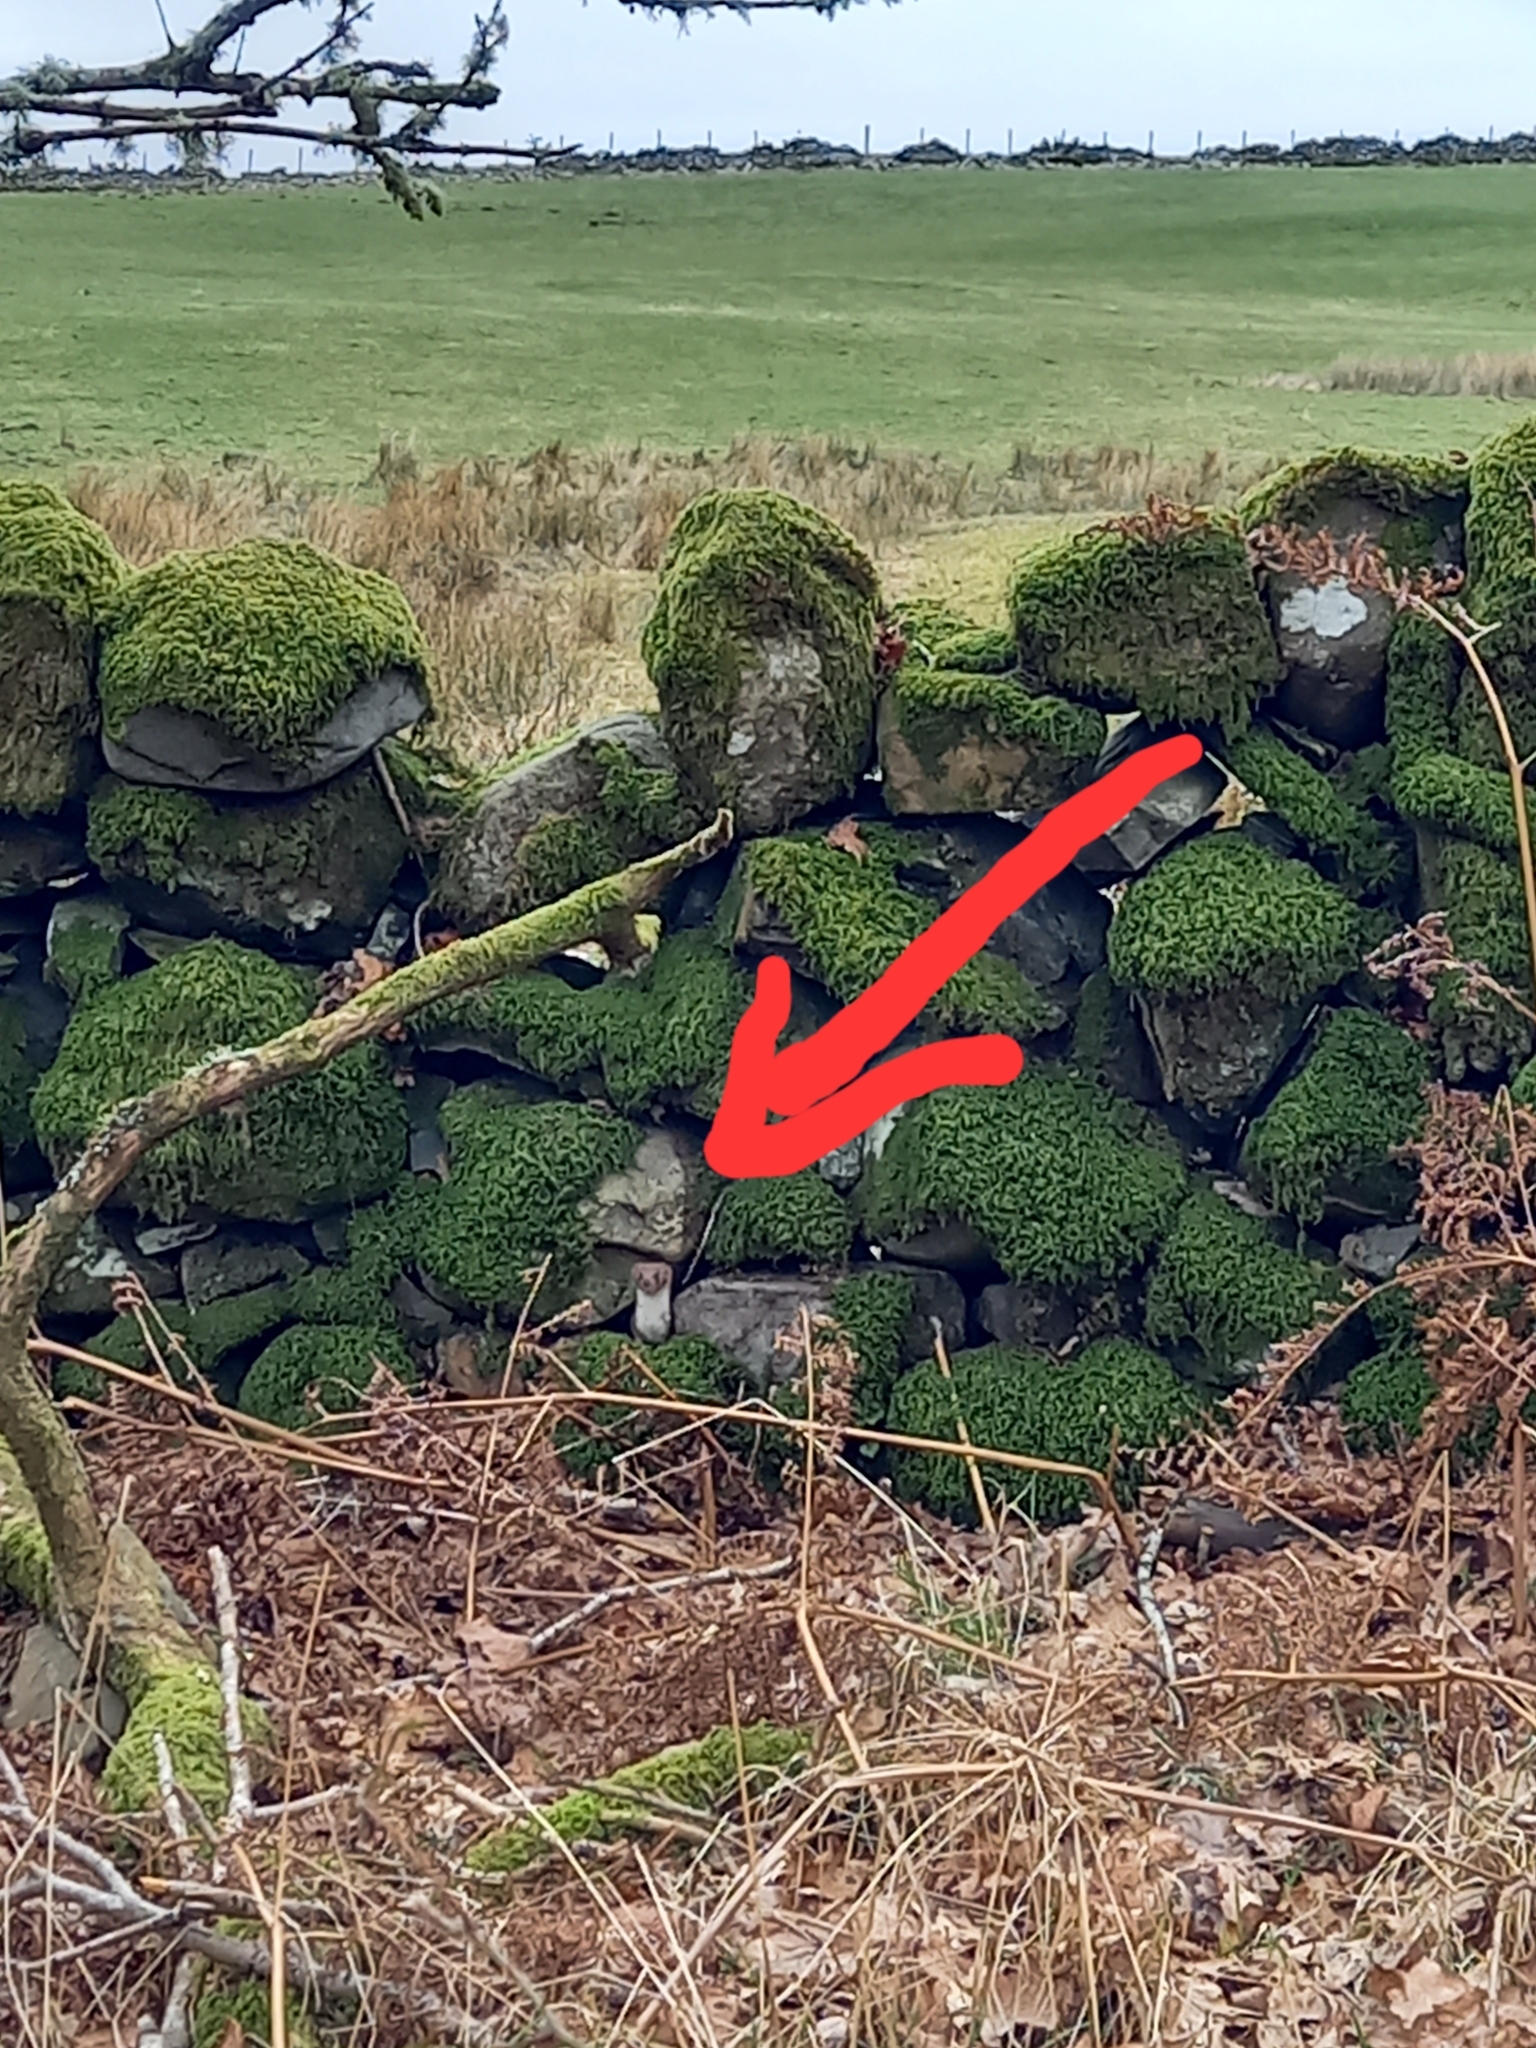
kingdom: Animalia
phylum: Chordata
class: Mammalia
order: Carnivora
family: Mustelidae
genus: Mustela
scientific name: Mustela erminea
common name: Stoat
